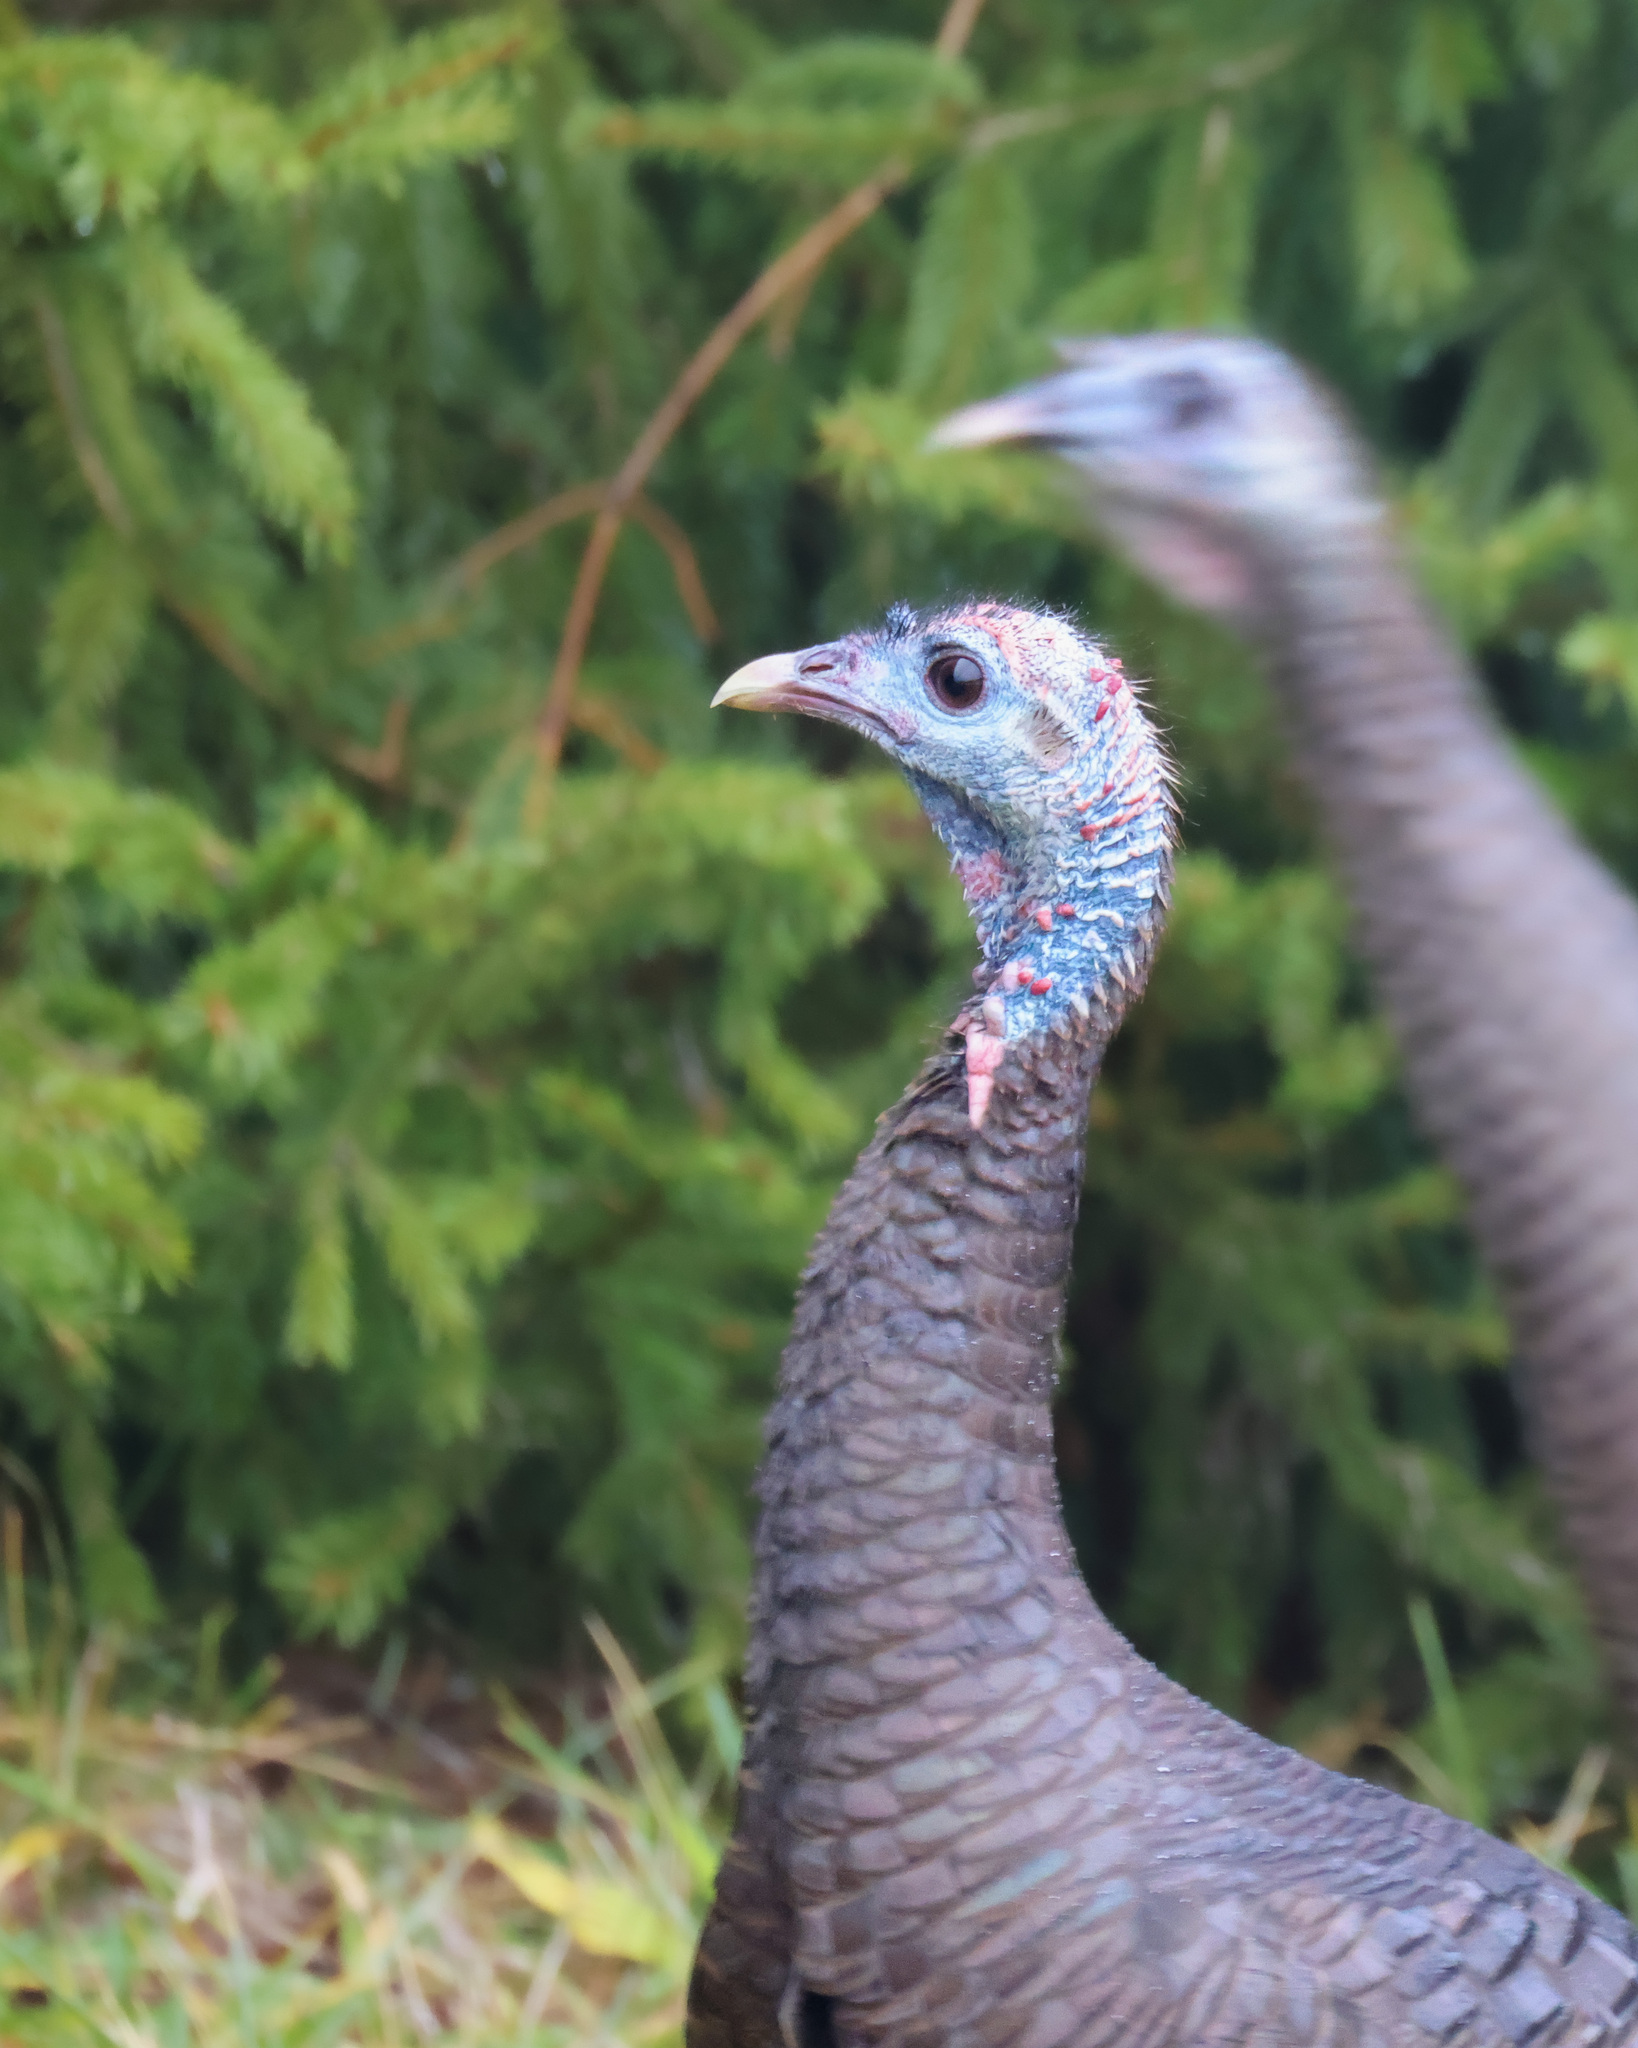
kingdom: Animalia
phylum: Chordata
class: Aves
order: Galliformes
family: Phasianidae
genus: Meleagris
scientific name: Meleagris gallopavo
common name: Wild turkey
